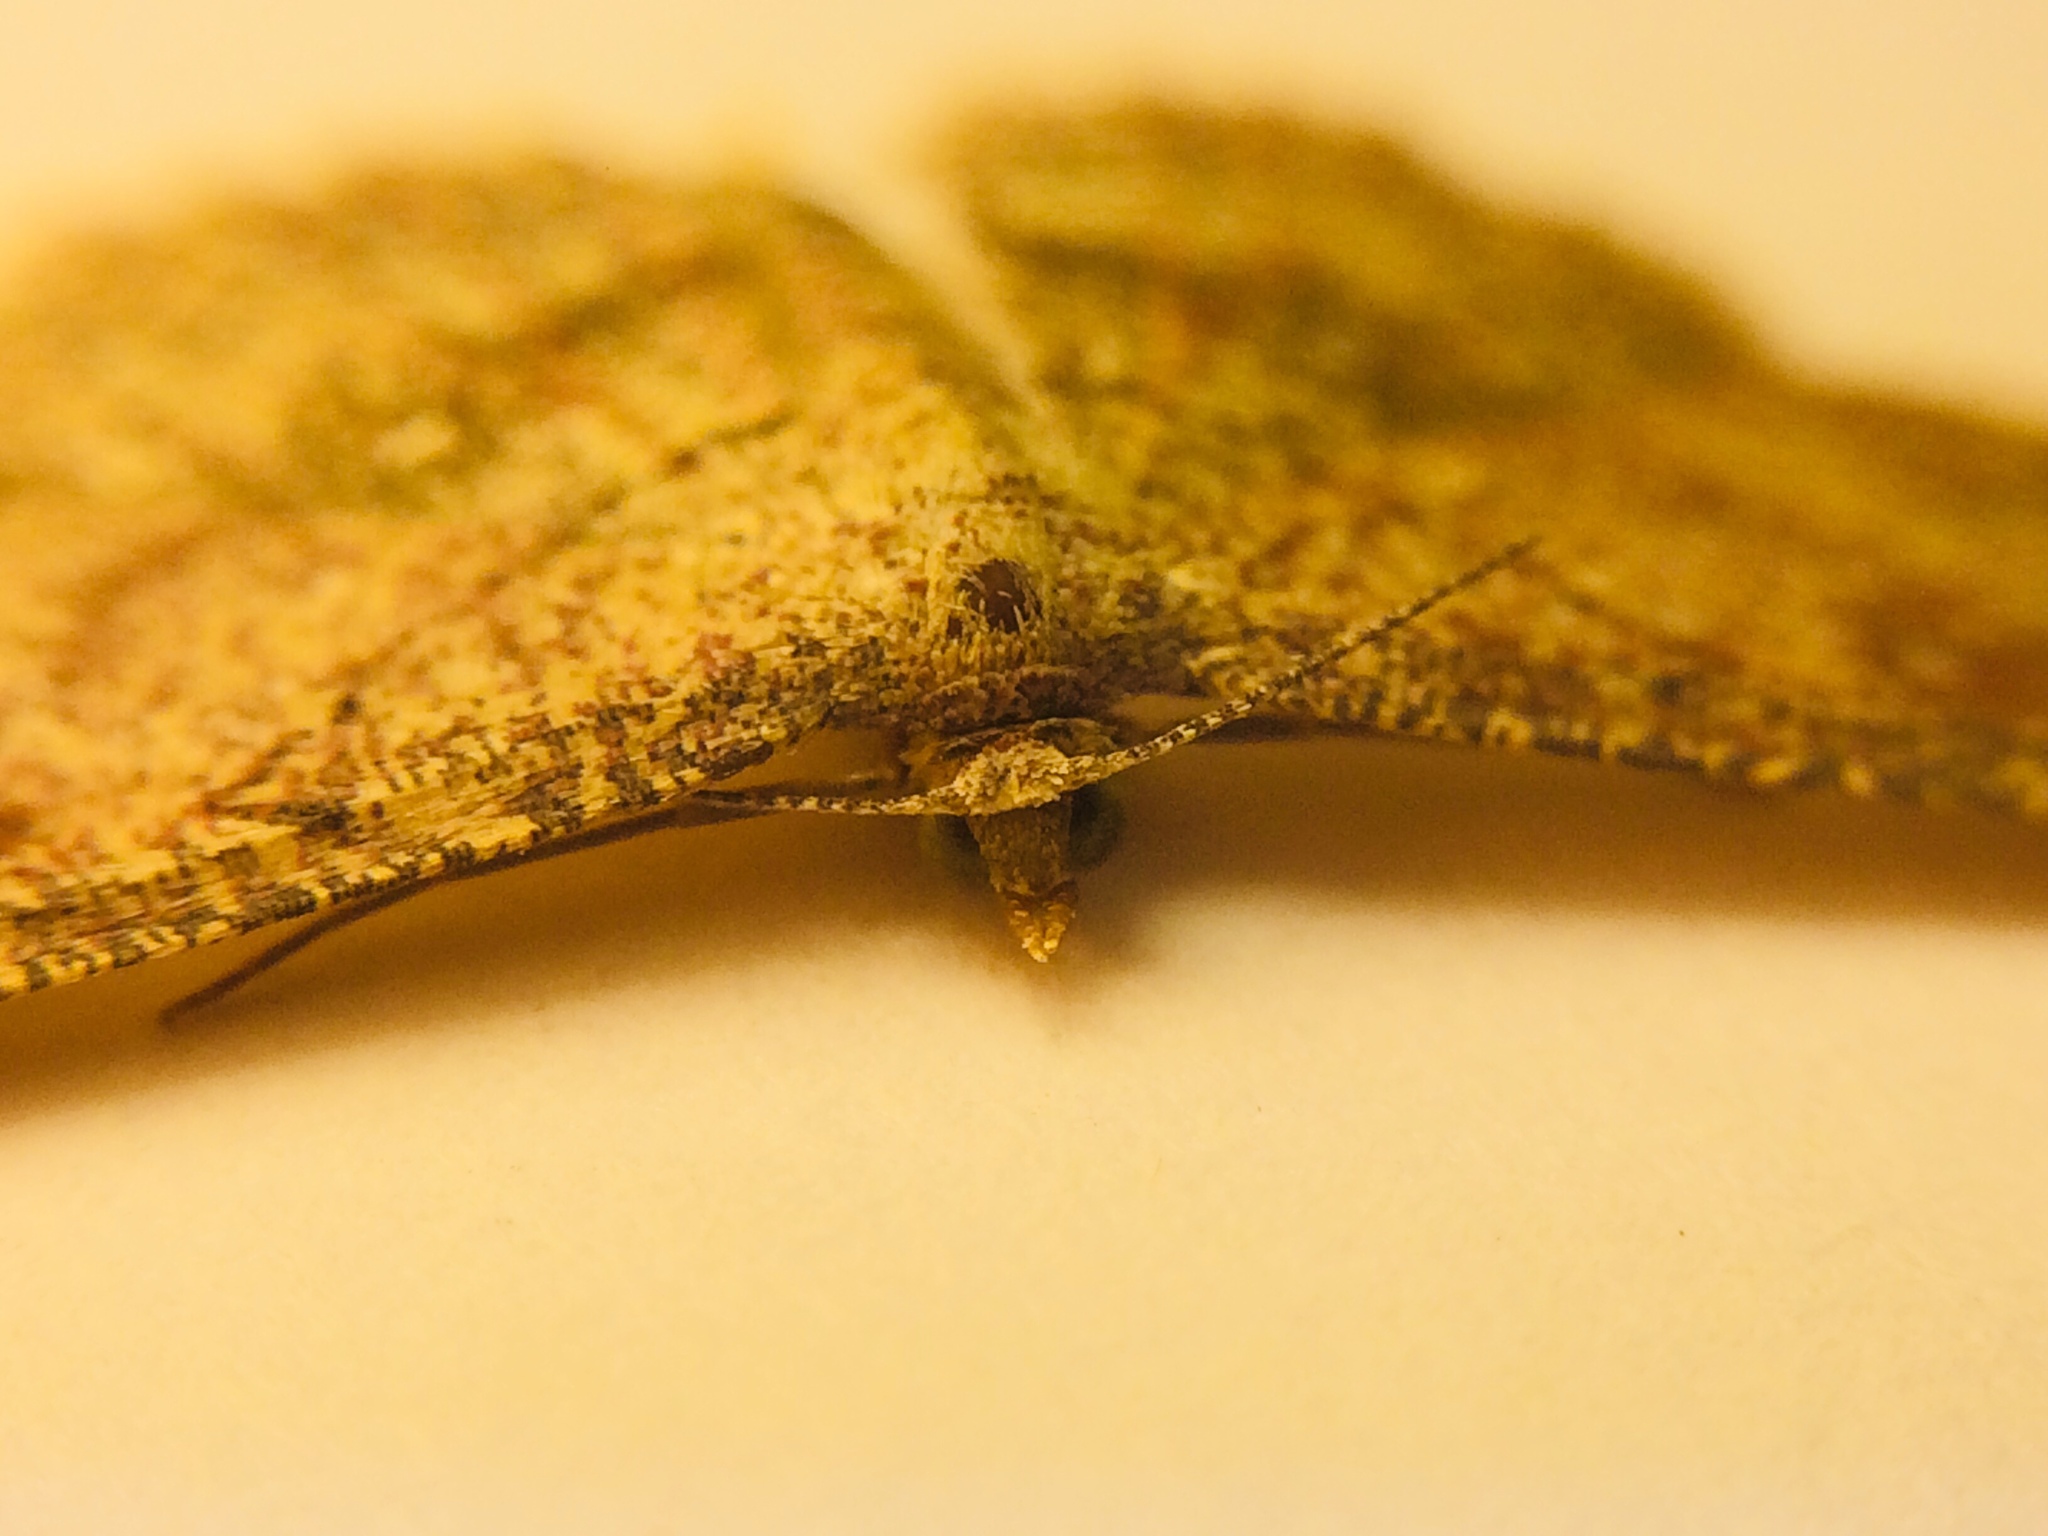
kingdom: Animalia
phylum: Arthropoda
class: Insecta
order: Lepidoptera
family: Geometridae
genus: Cyclophora
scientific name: Cyclophora nanaria
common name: Cankerworm
